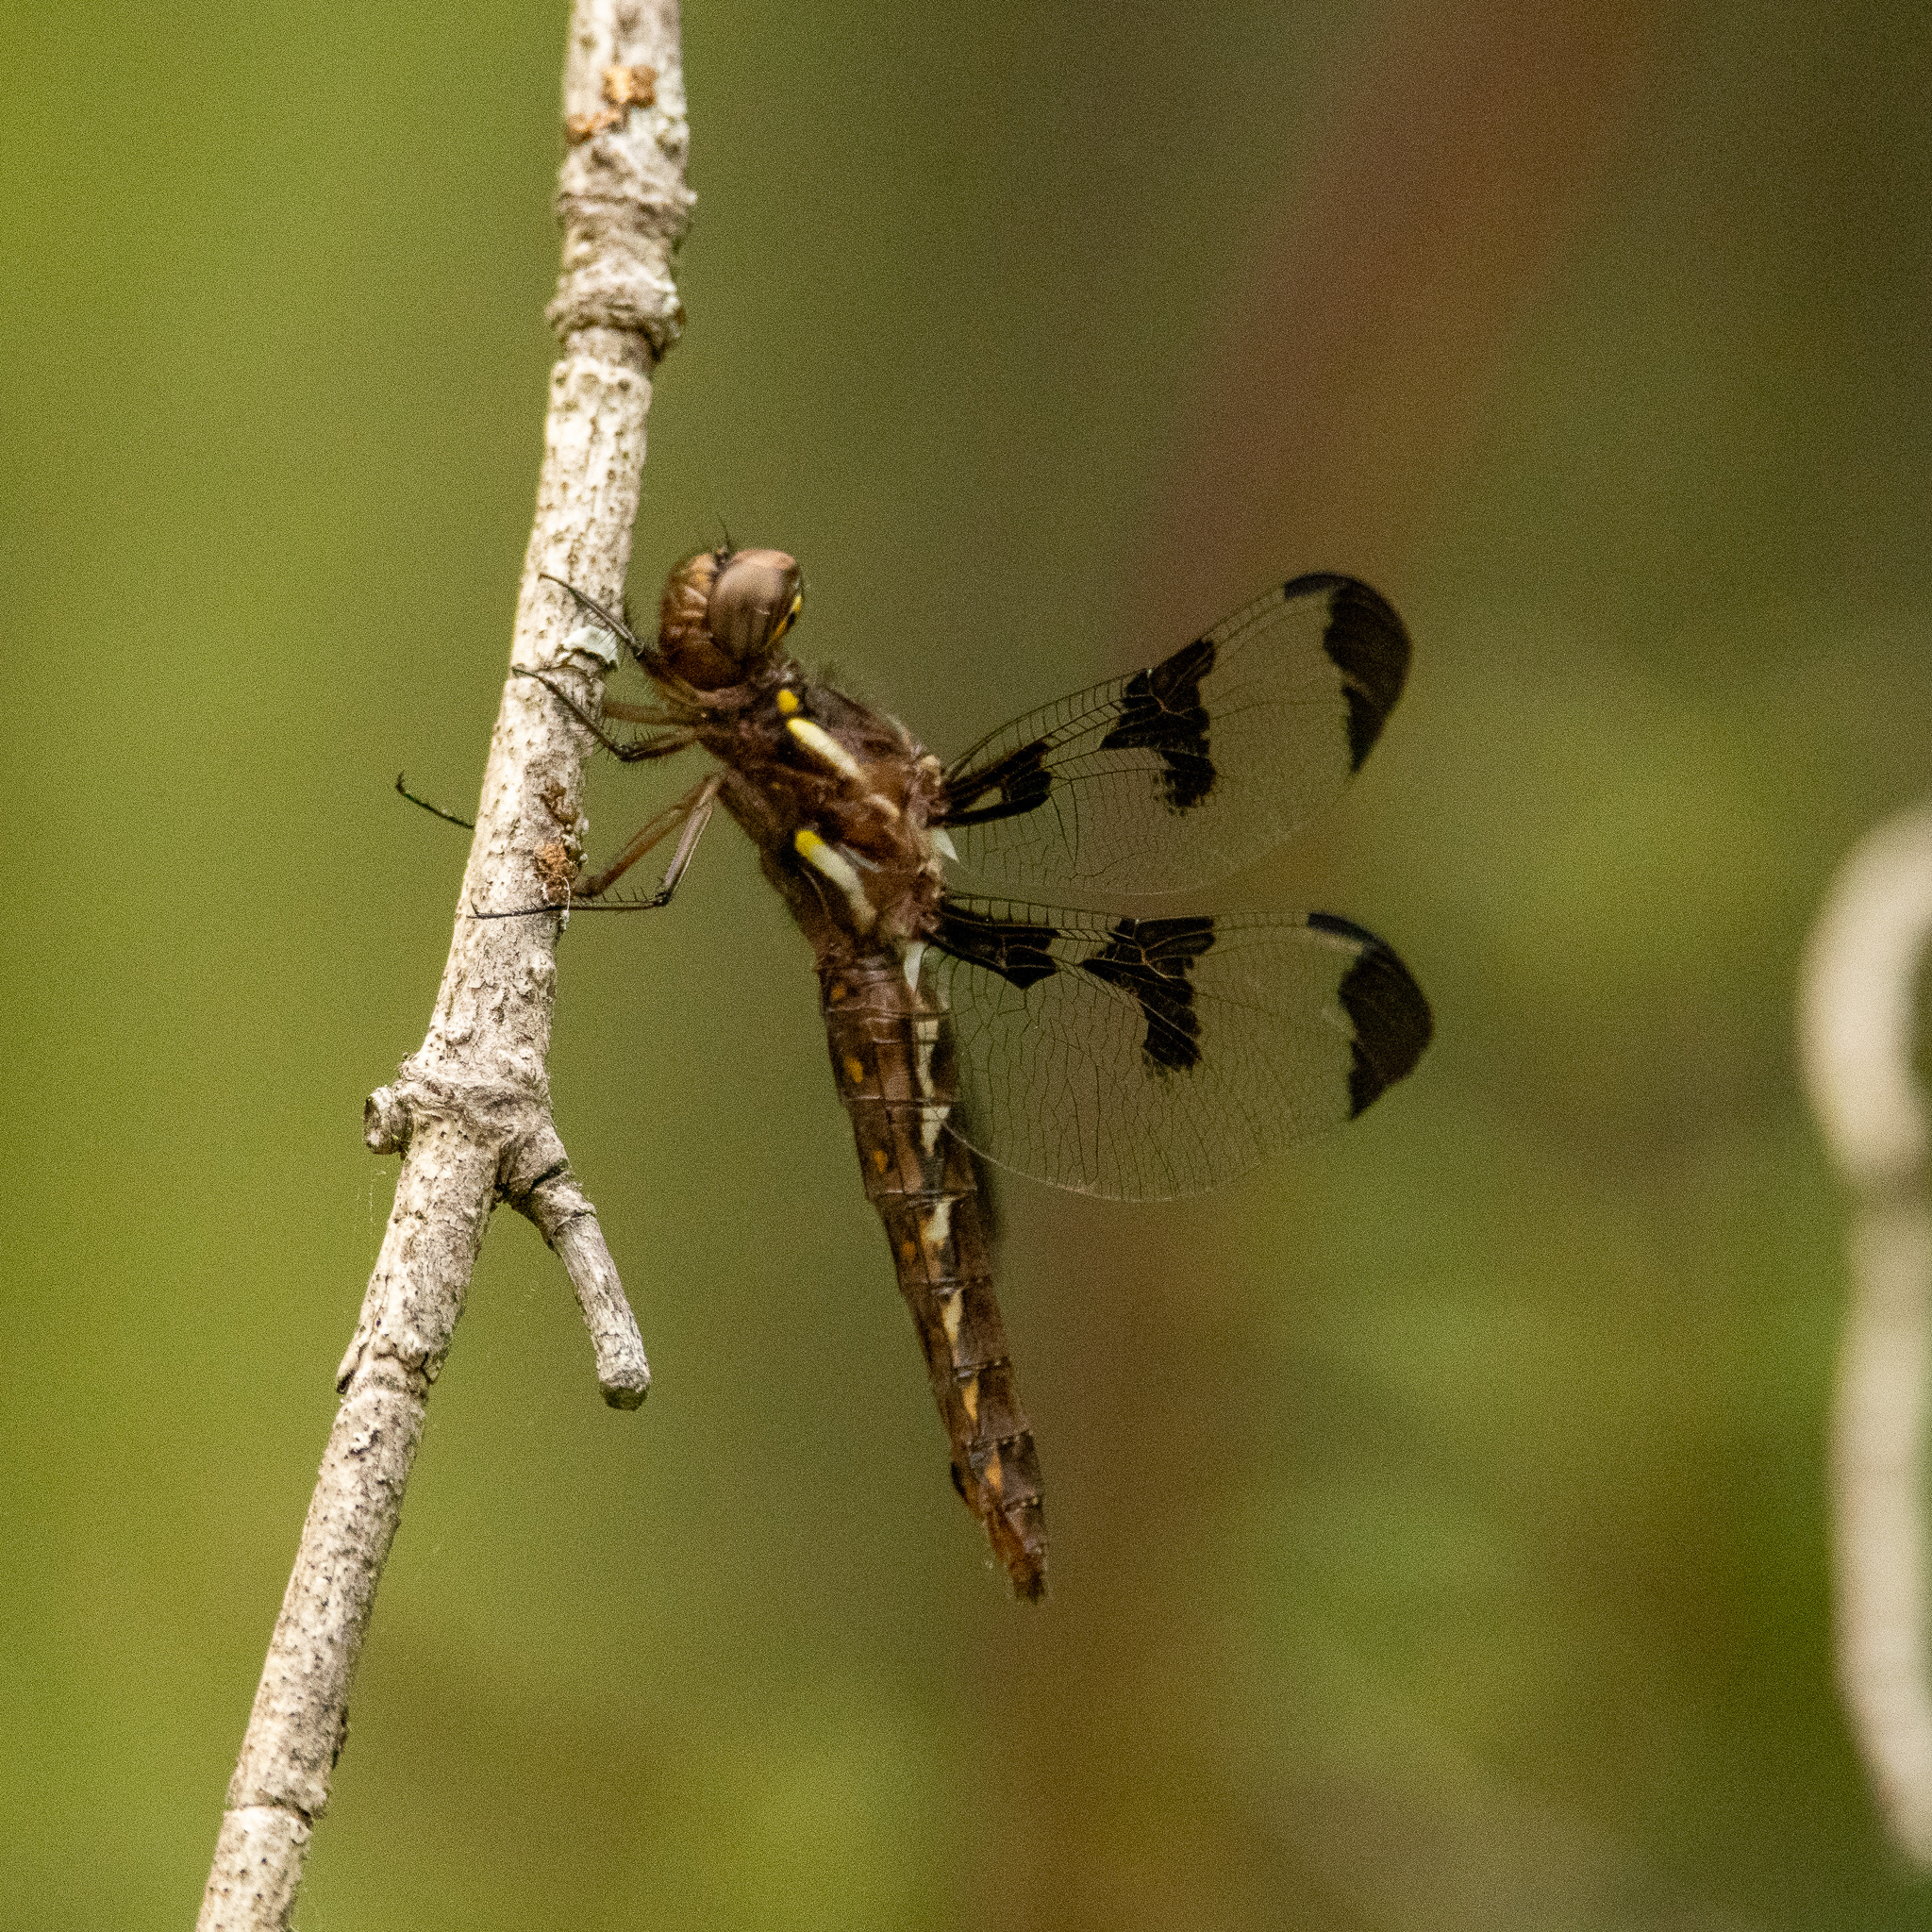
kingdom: Animalia
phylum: Arthropoda
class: Insecta
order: Odonata
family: Libellulidae
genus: Plathemis
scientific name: Plathemis lydia
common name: Common whitetail
